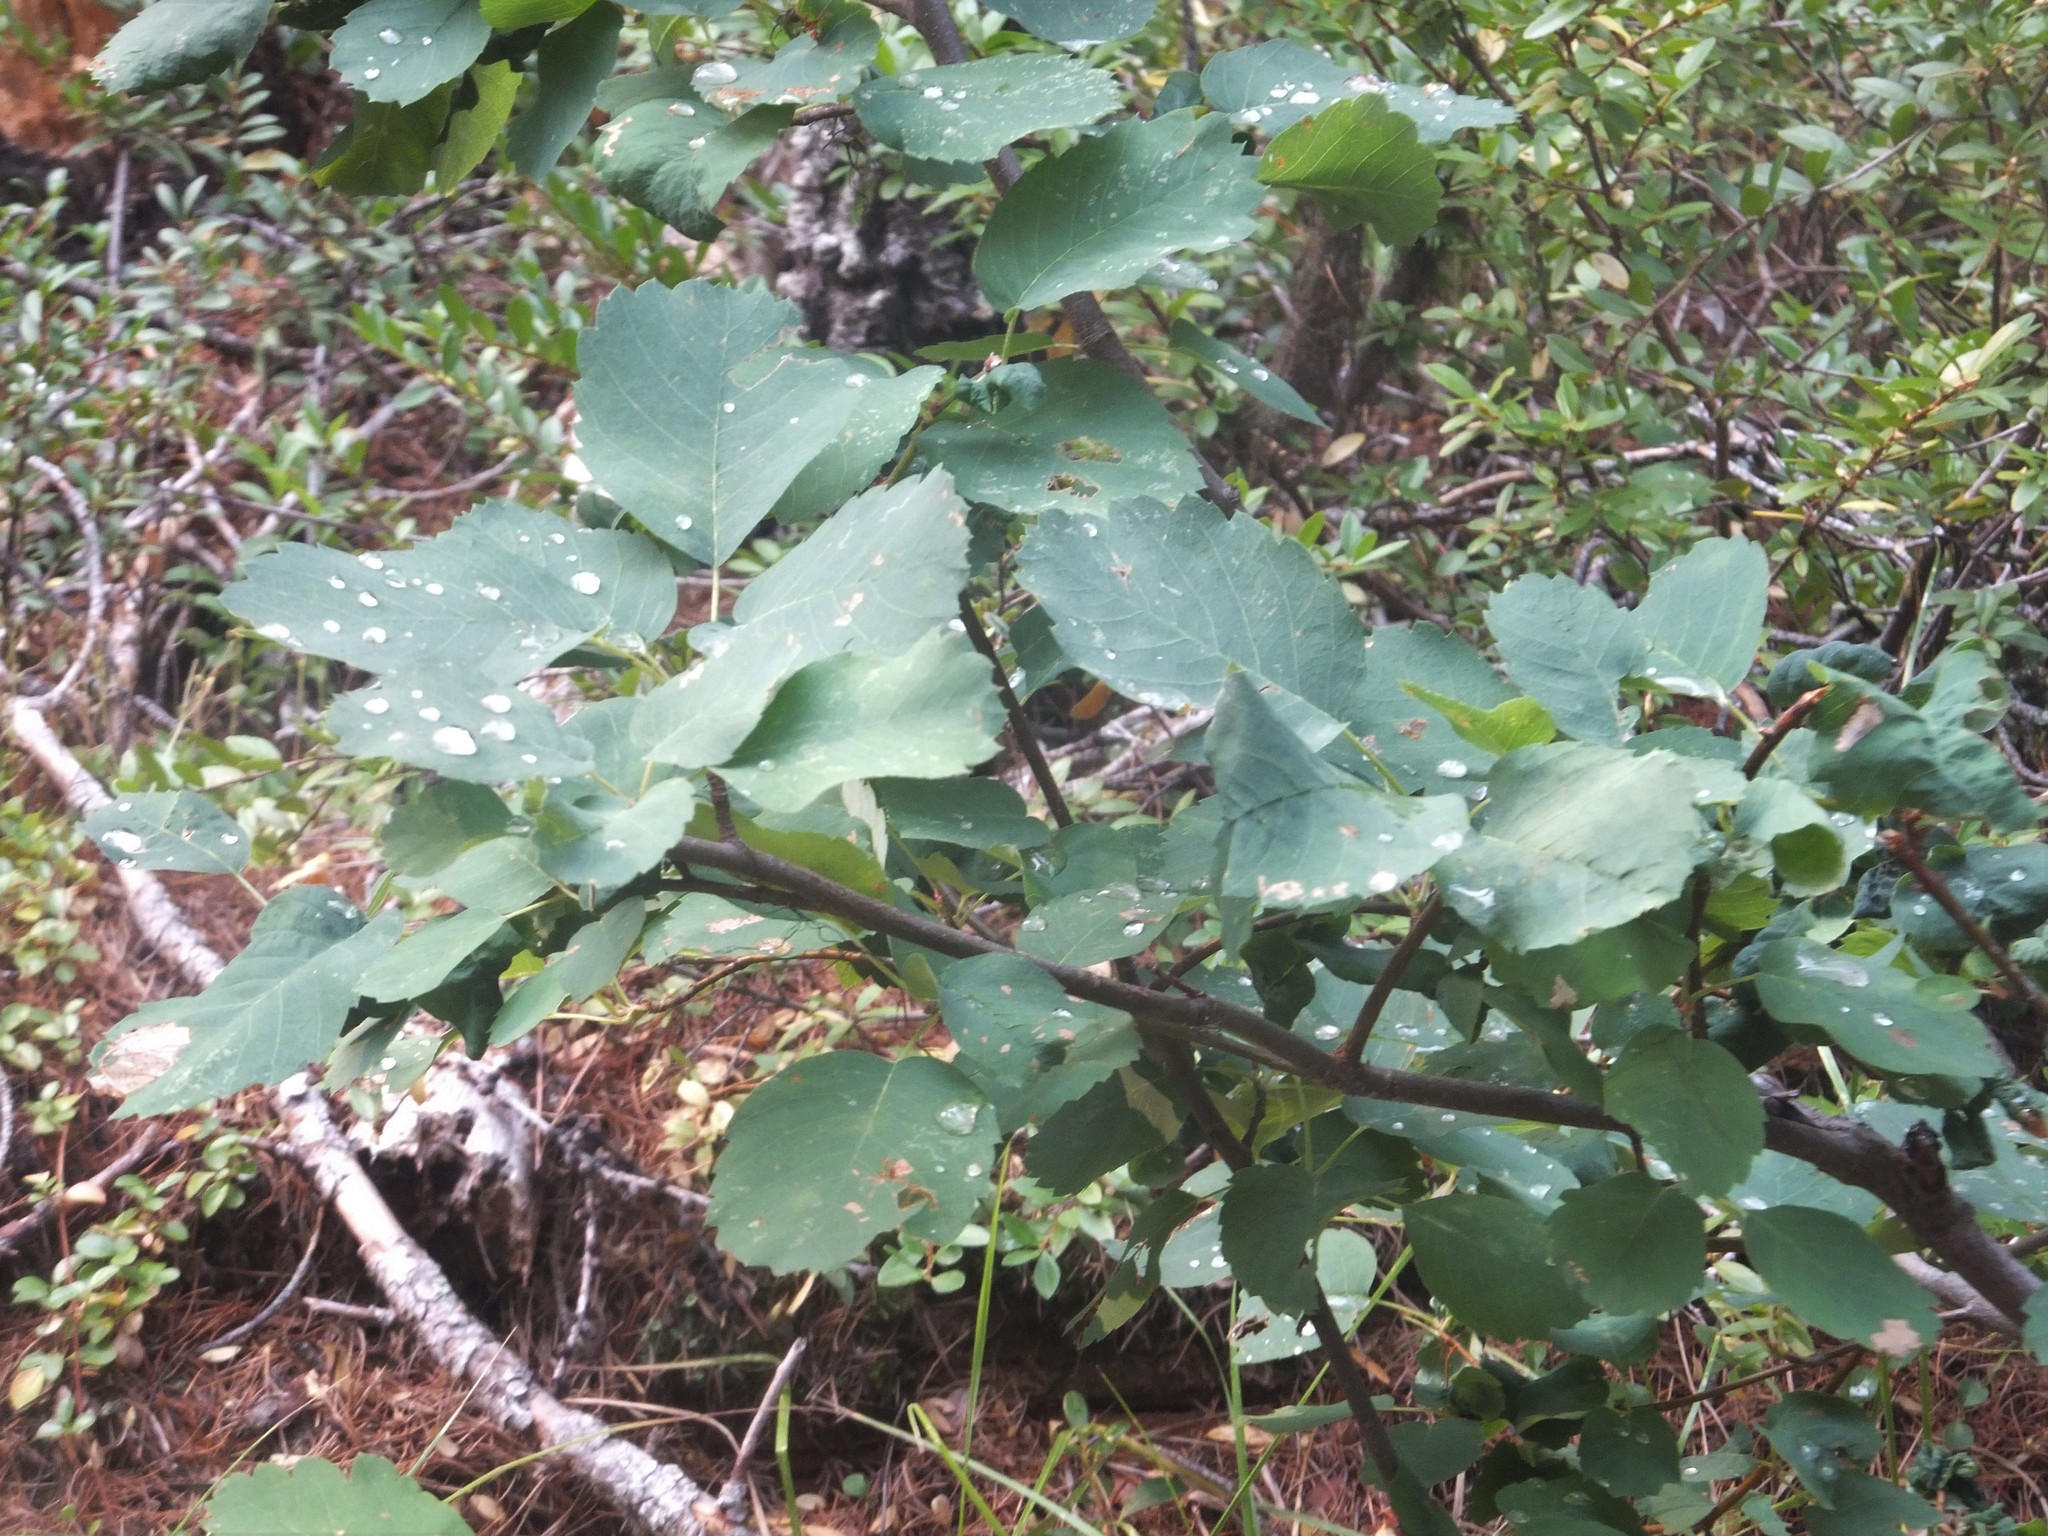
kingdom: Plantae
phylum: Tracheophyta
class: Magnoliopsida
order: Rosales
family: Rosaceae
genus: Amelanchier
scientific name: Amelanchier alnifolia
